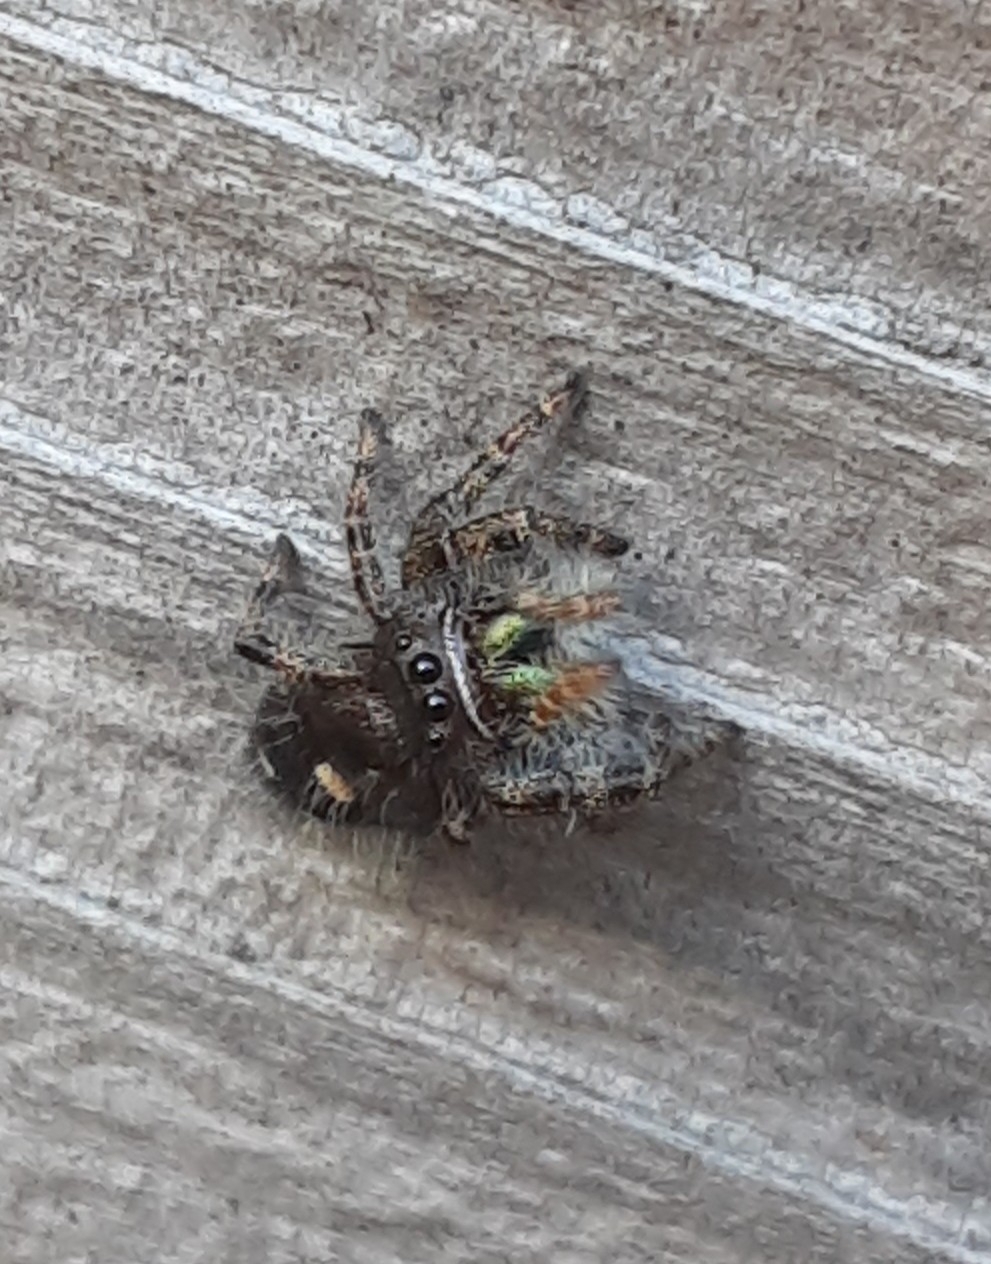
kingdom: Animalia
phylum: Arthropoda
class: Arachnida
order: Araneae
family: Salticidae
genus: Phidippus
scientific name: Phidippus audax
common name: Bold jumper
